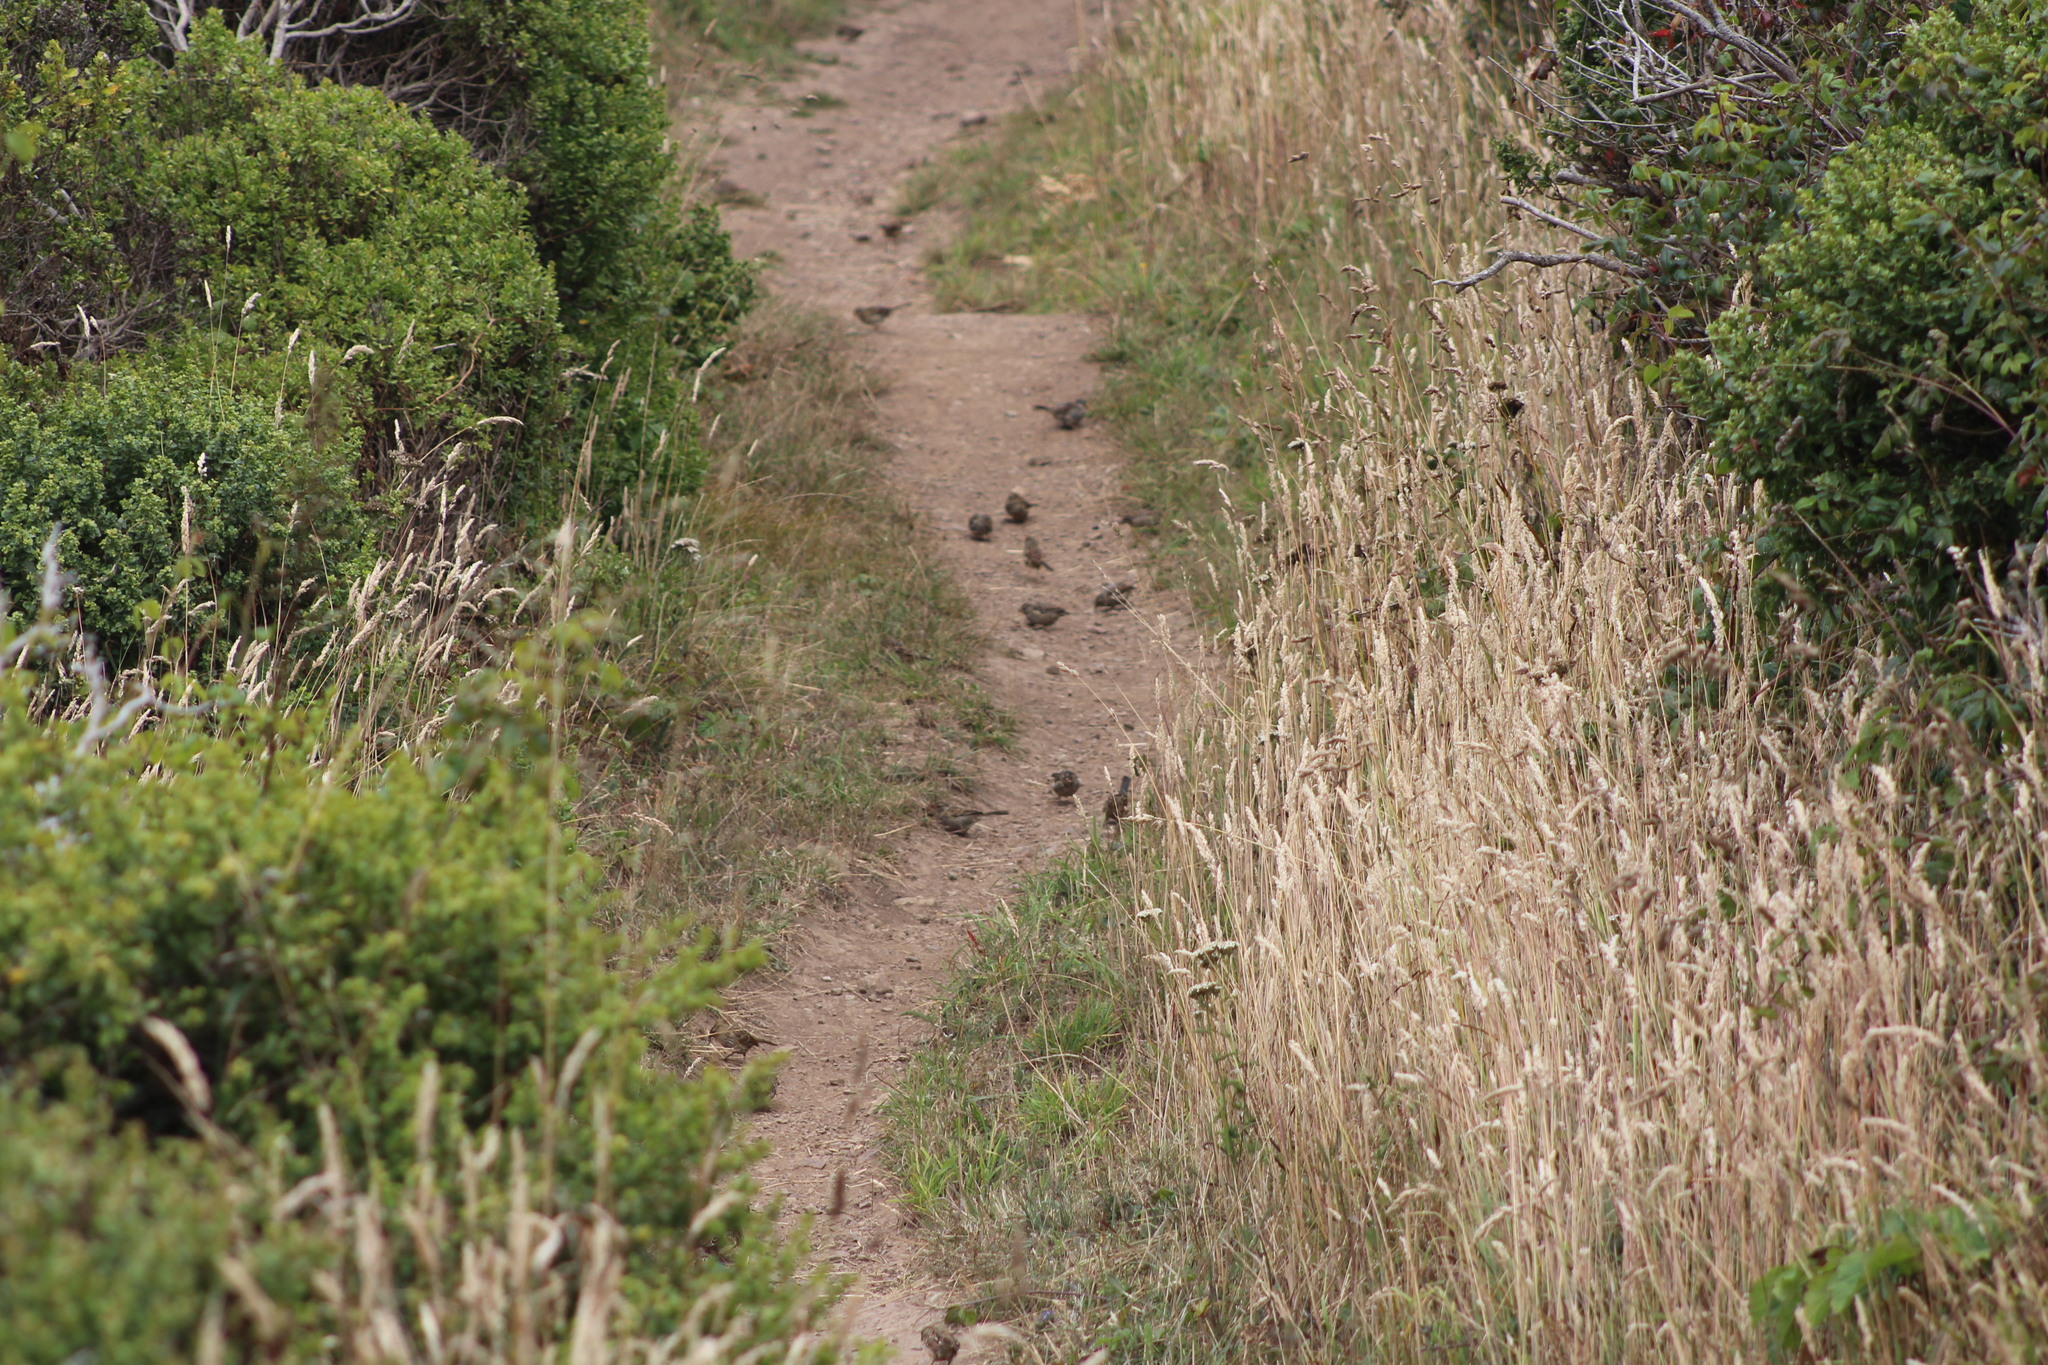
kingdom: Animalia
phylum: Chordata
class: Aves
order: Passeriformes
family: Passerellidae
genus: Zonotrichia
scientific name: Zonotrichia leucophrys
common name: White-crowned sparrow
